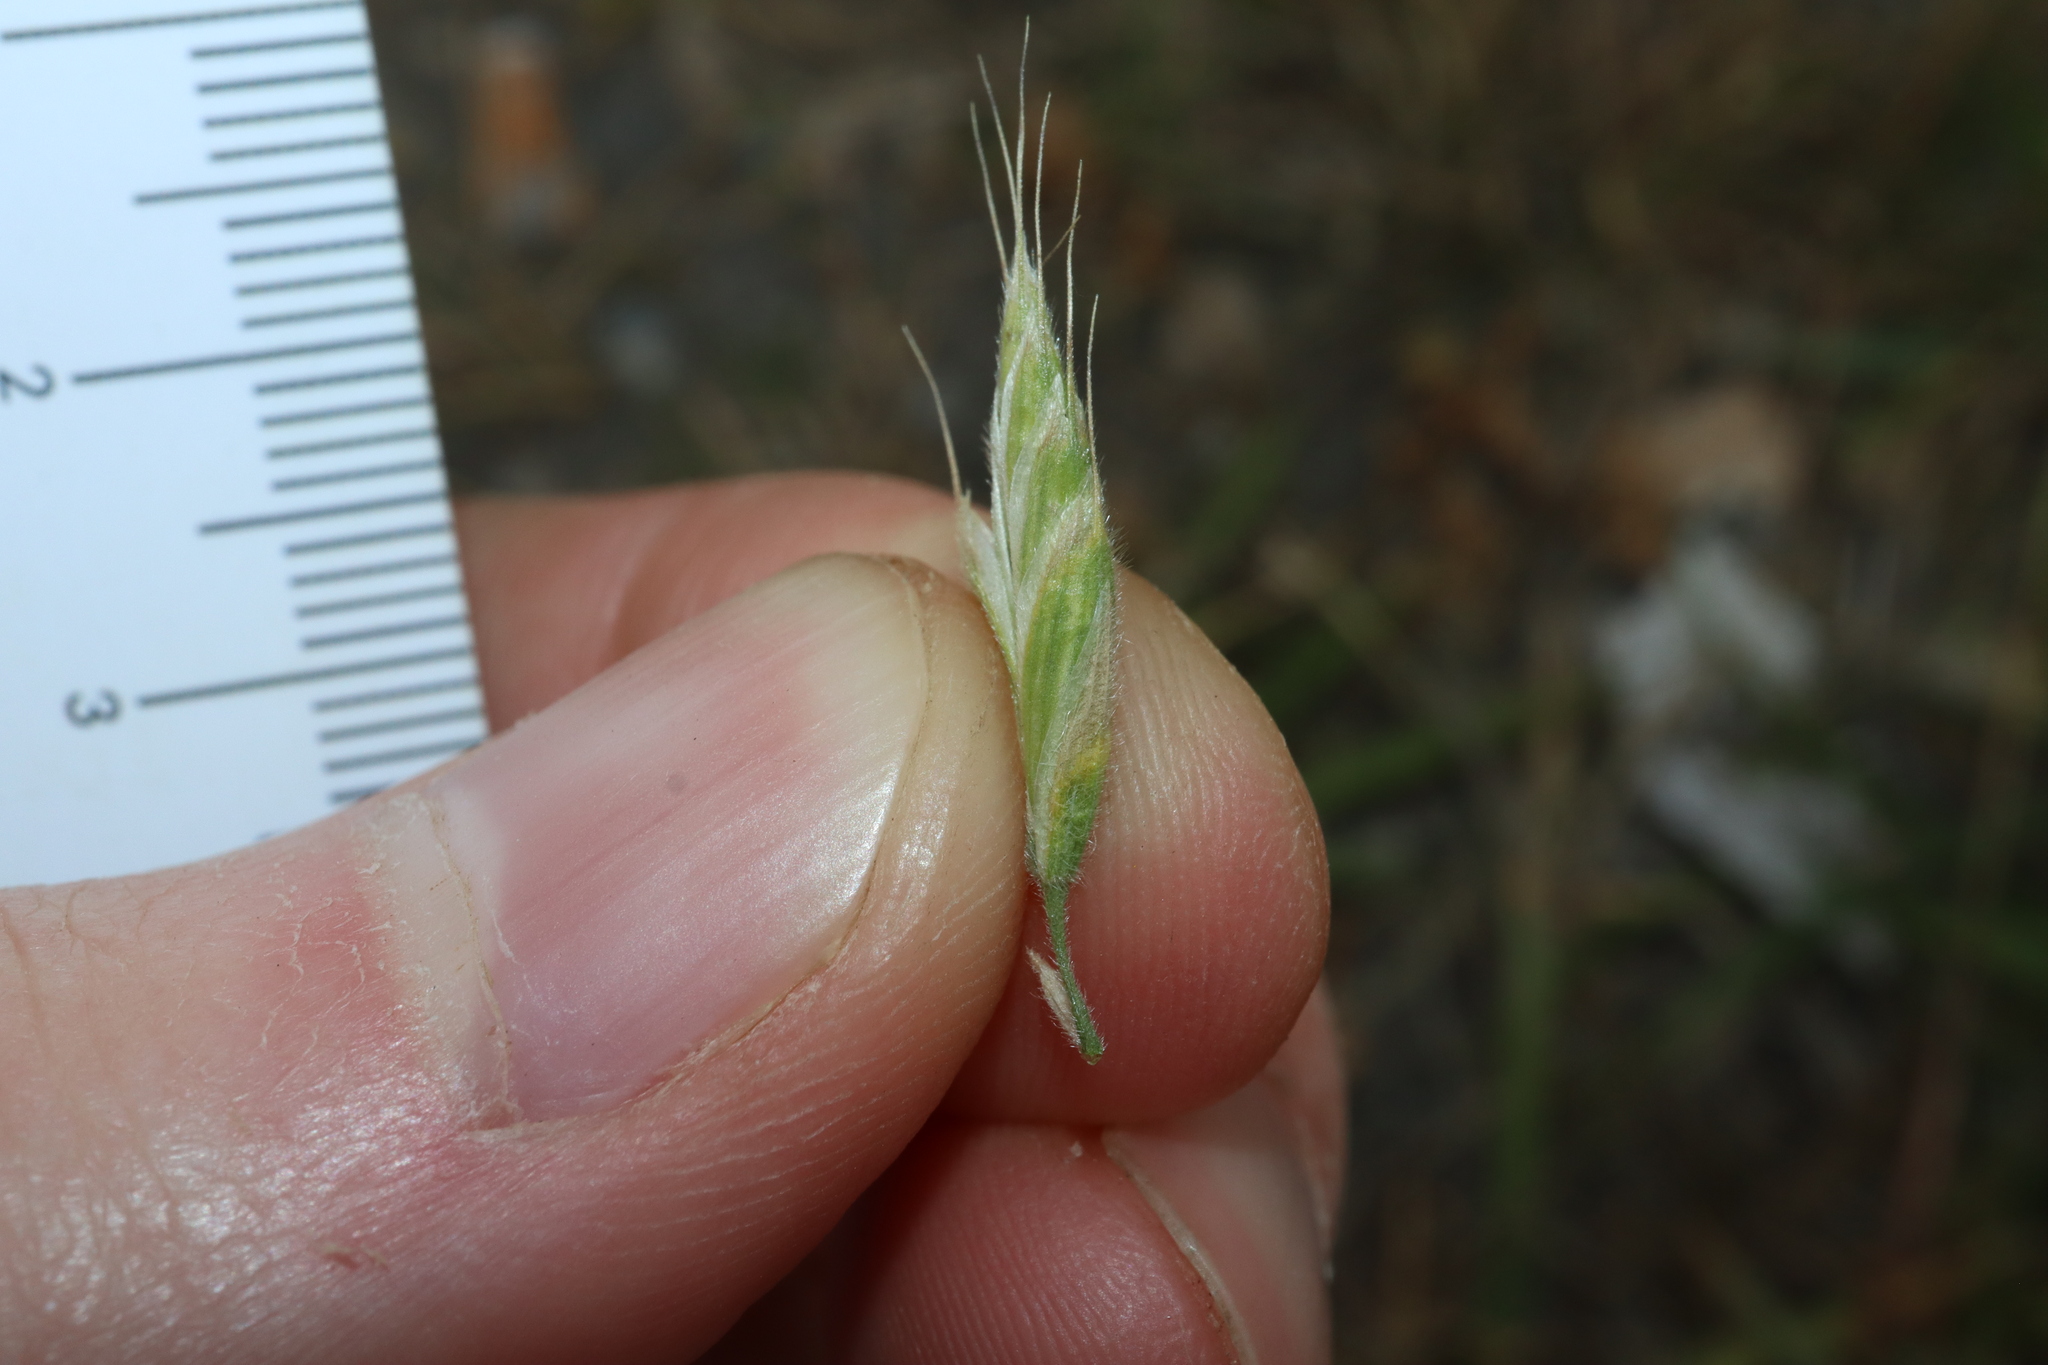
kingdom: Plantae
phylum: Tracheophyta
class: Liliopsida
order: Poales
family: Poaceae
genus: Bromus
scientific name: Bromus hordeaceus
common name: Soft brome
